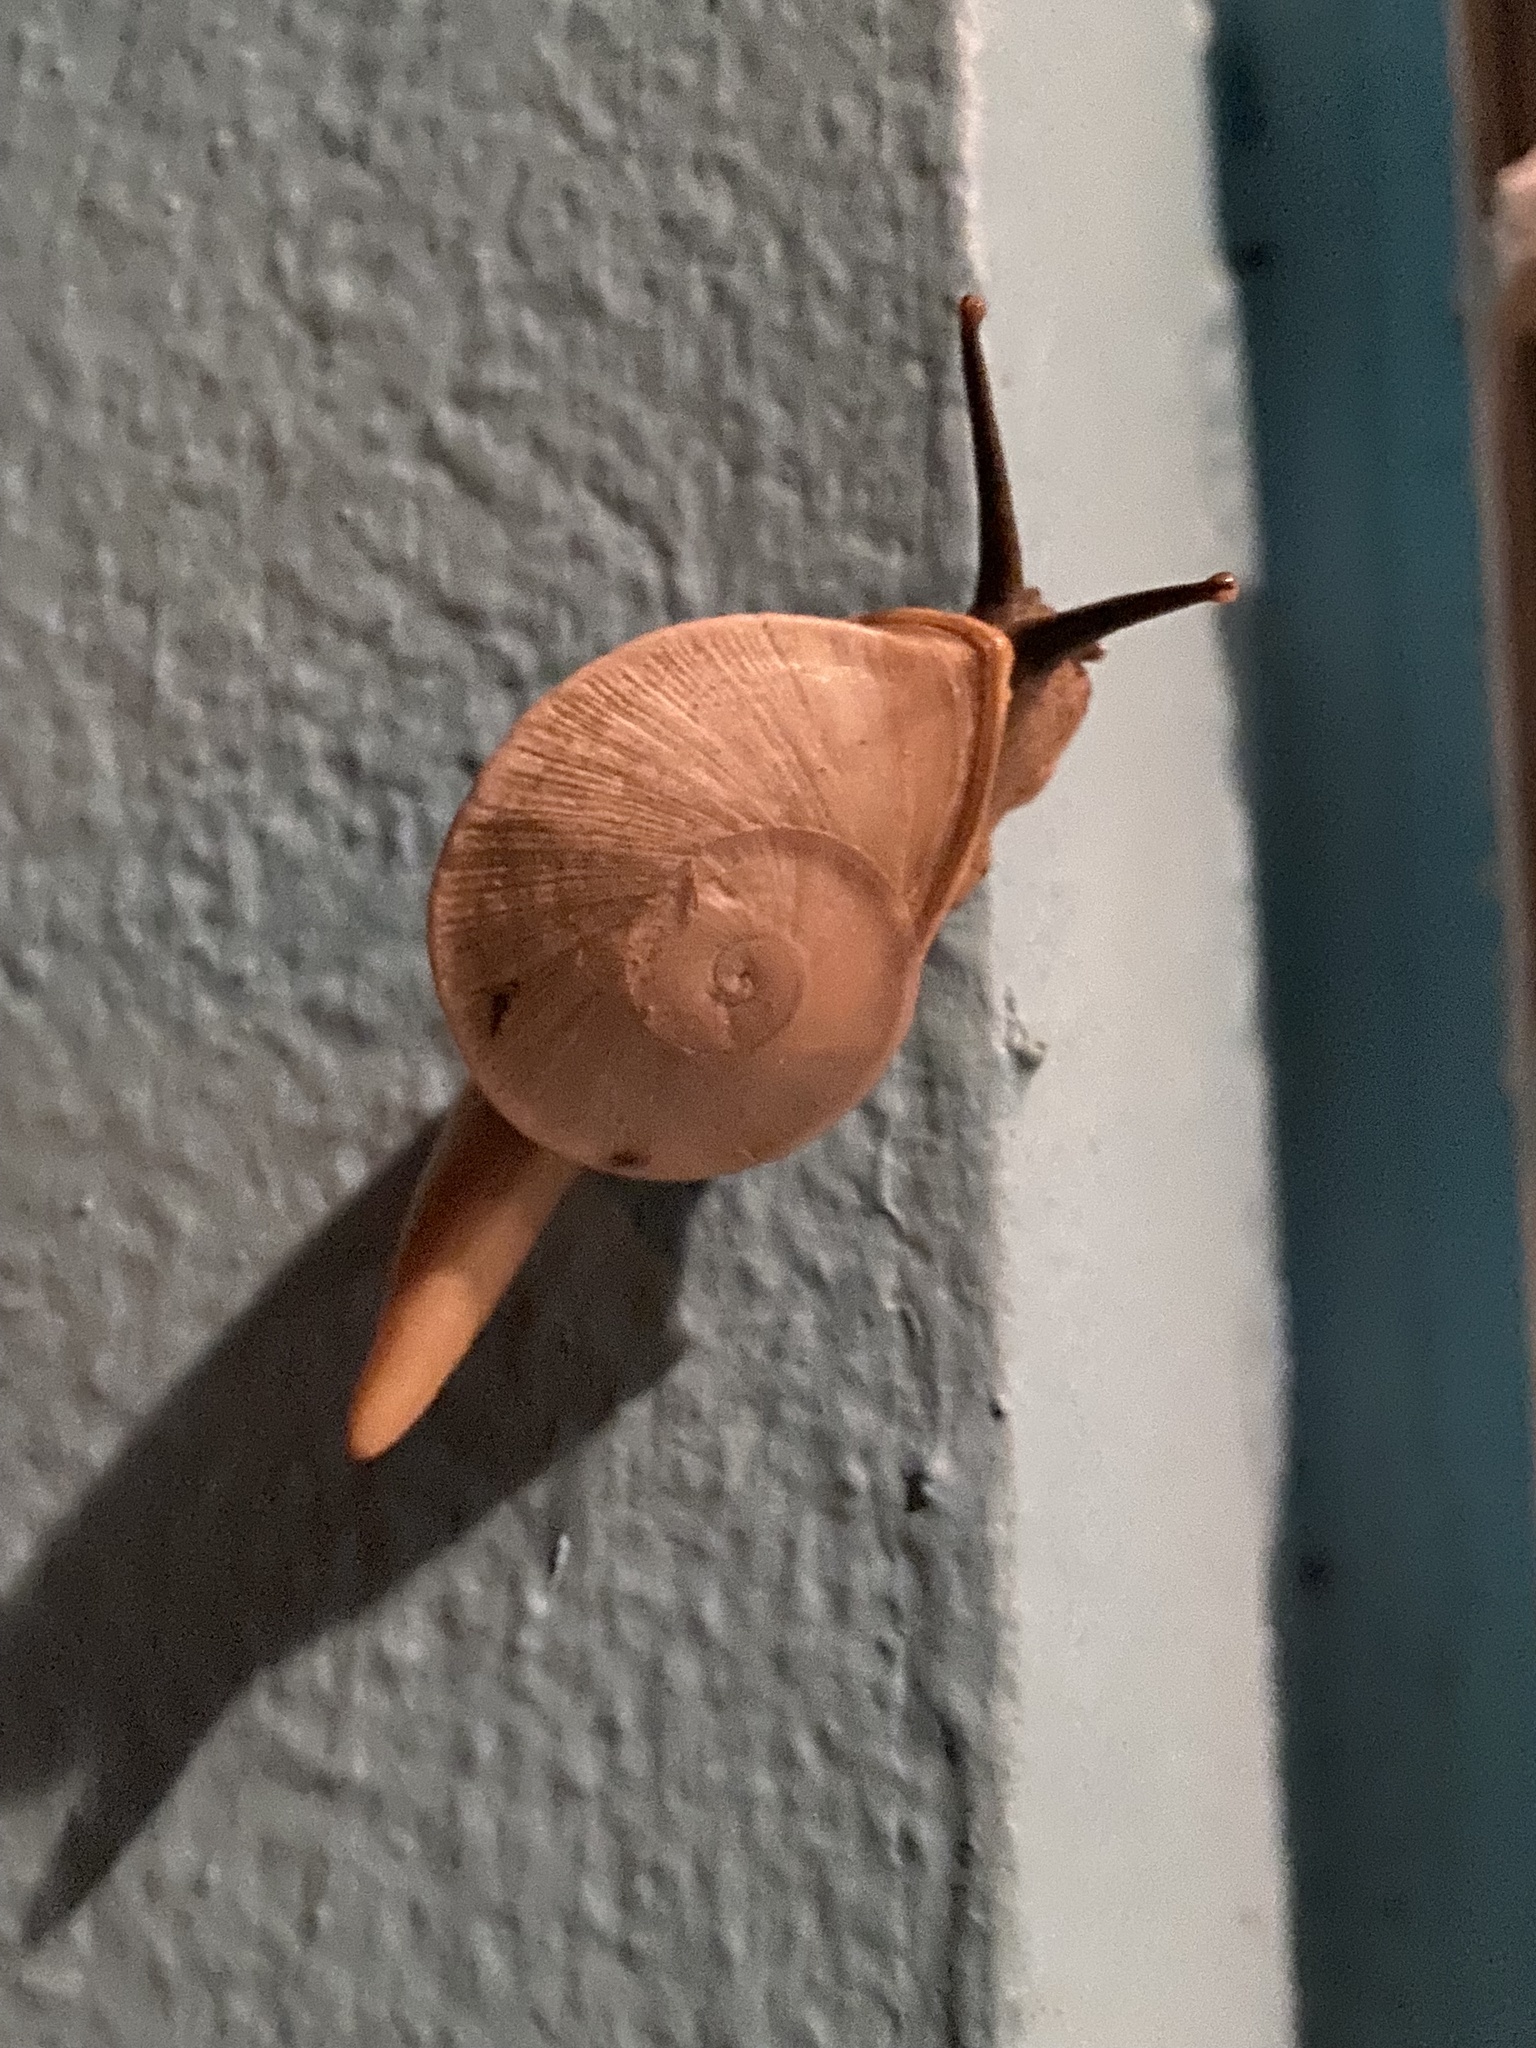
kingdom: Animalia
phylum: Mollusca
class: Gastropoda
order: Stylommatophora
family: Sagdidae
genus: Parthena
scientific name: Parthena acutangula
